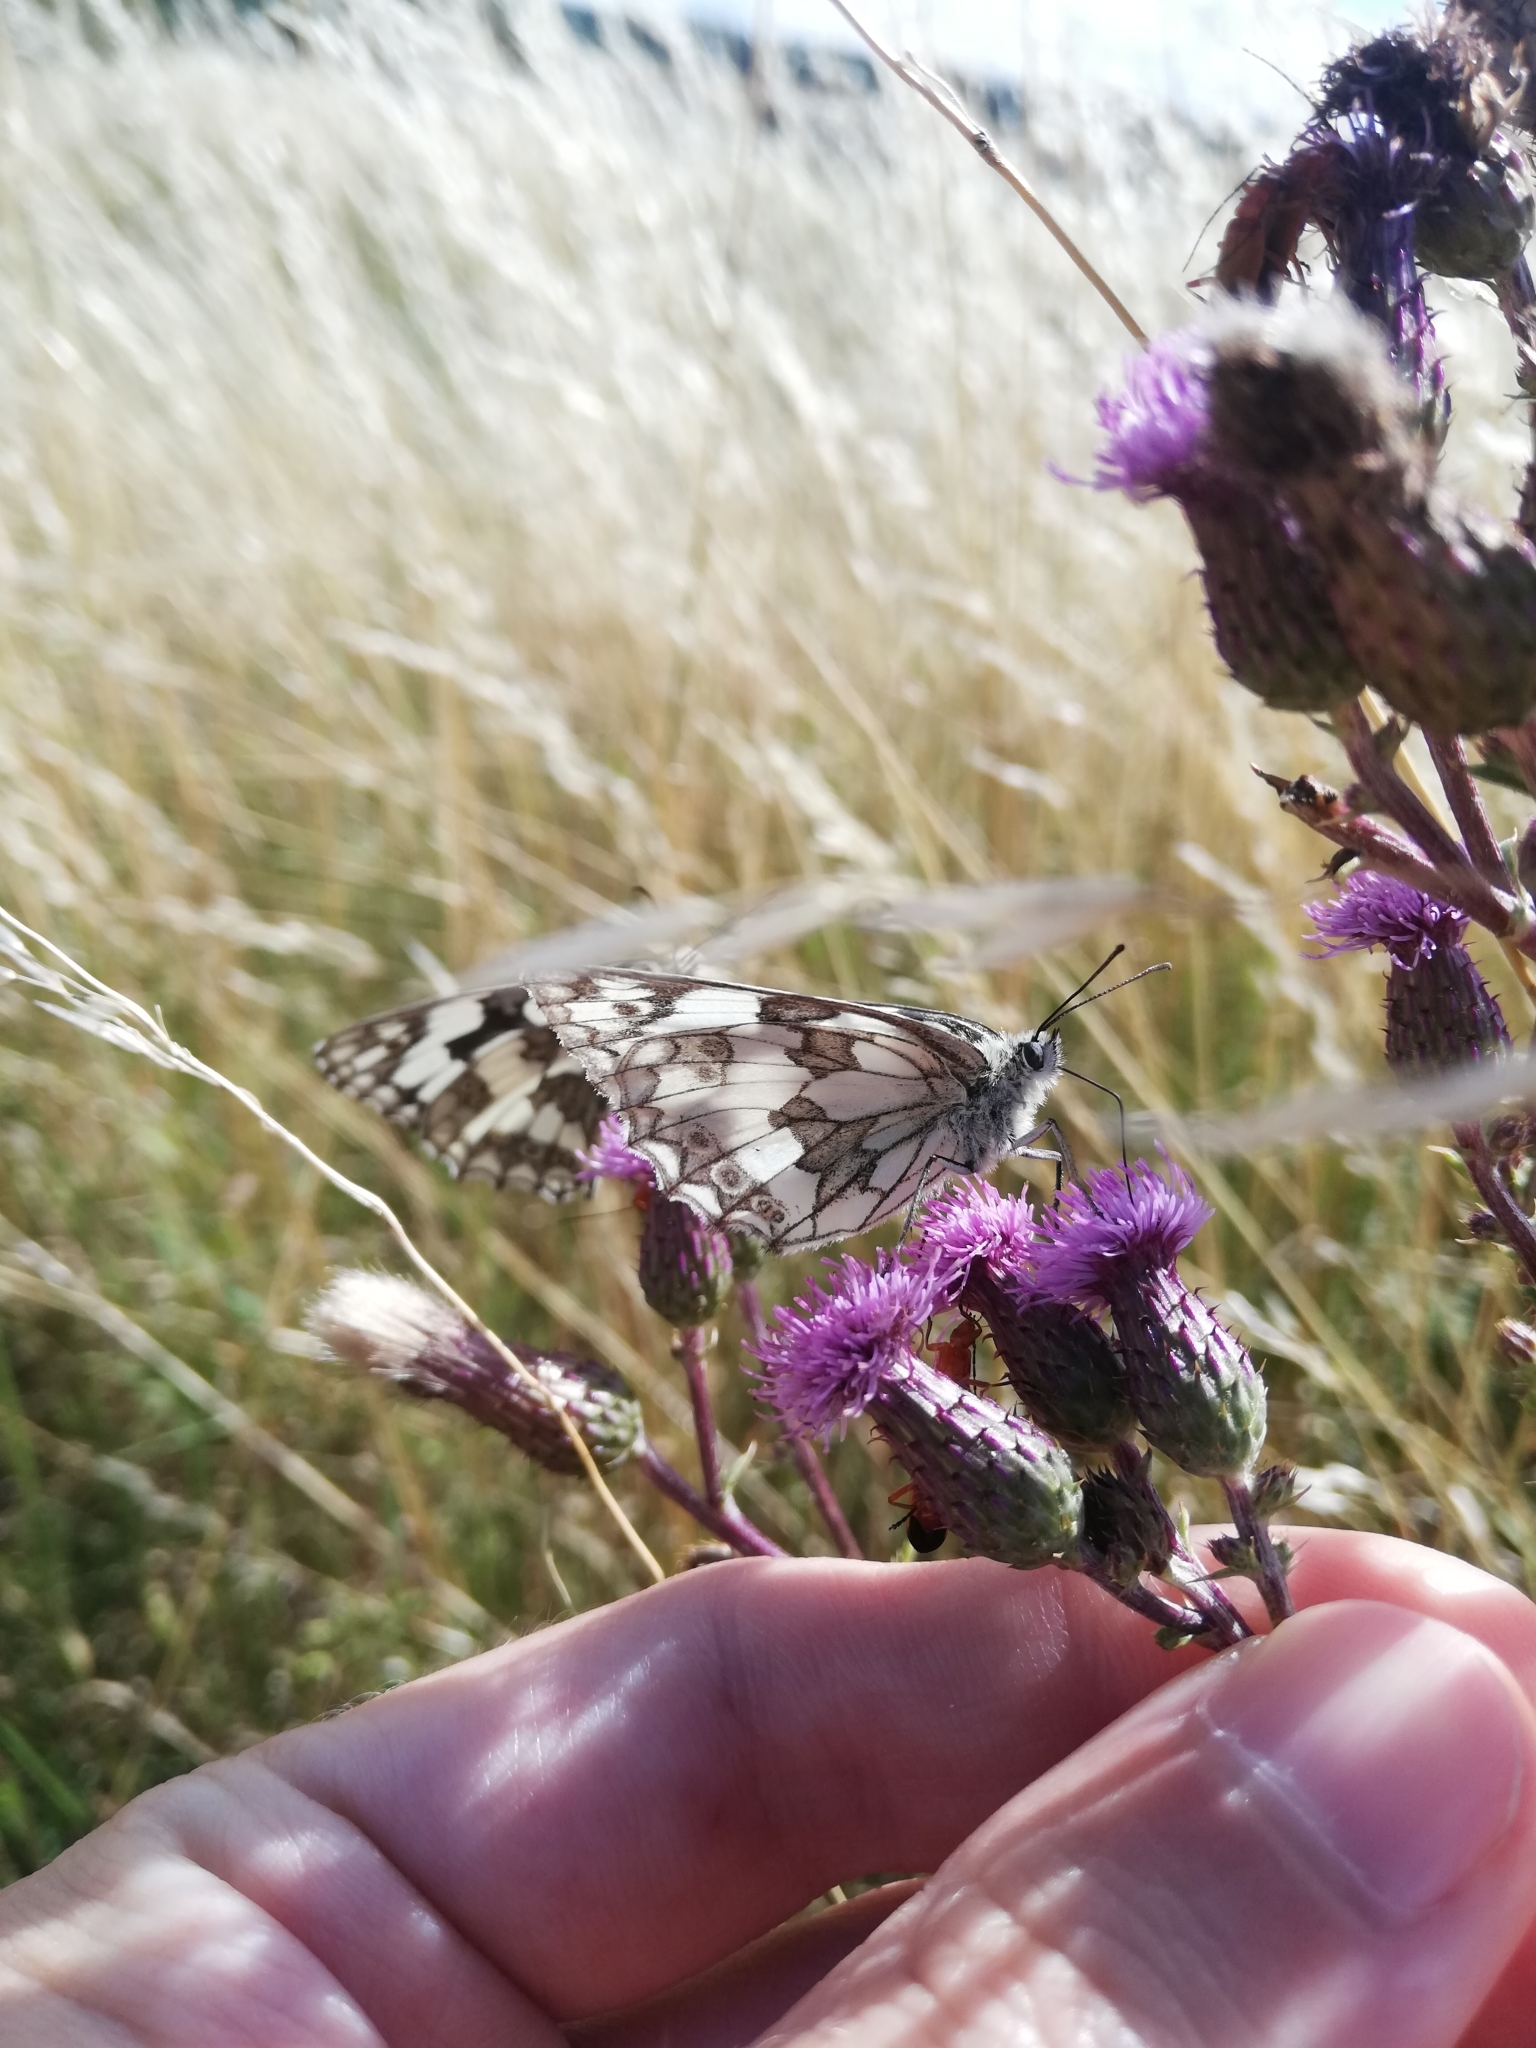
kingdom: Animalia
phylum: Arthropoda
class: Insecta
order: Lepidoptera
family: Nymphalidae
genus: Melanargia
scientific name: Melanargia galathea
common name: Marbled white
